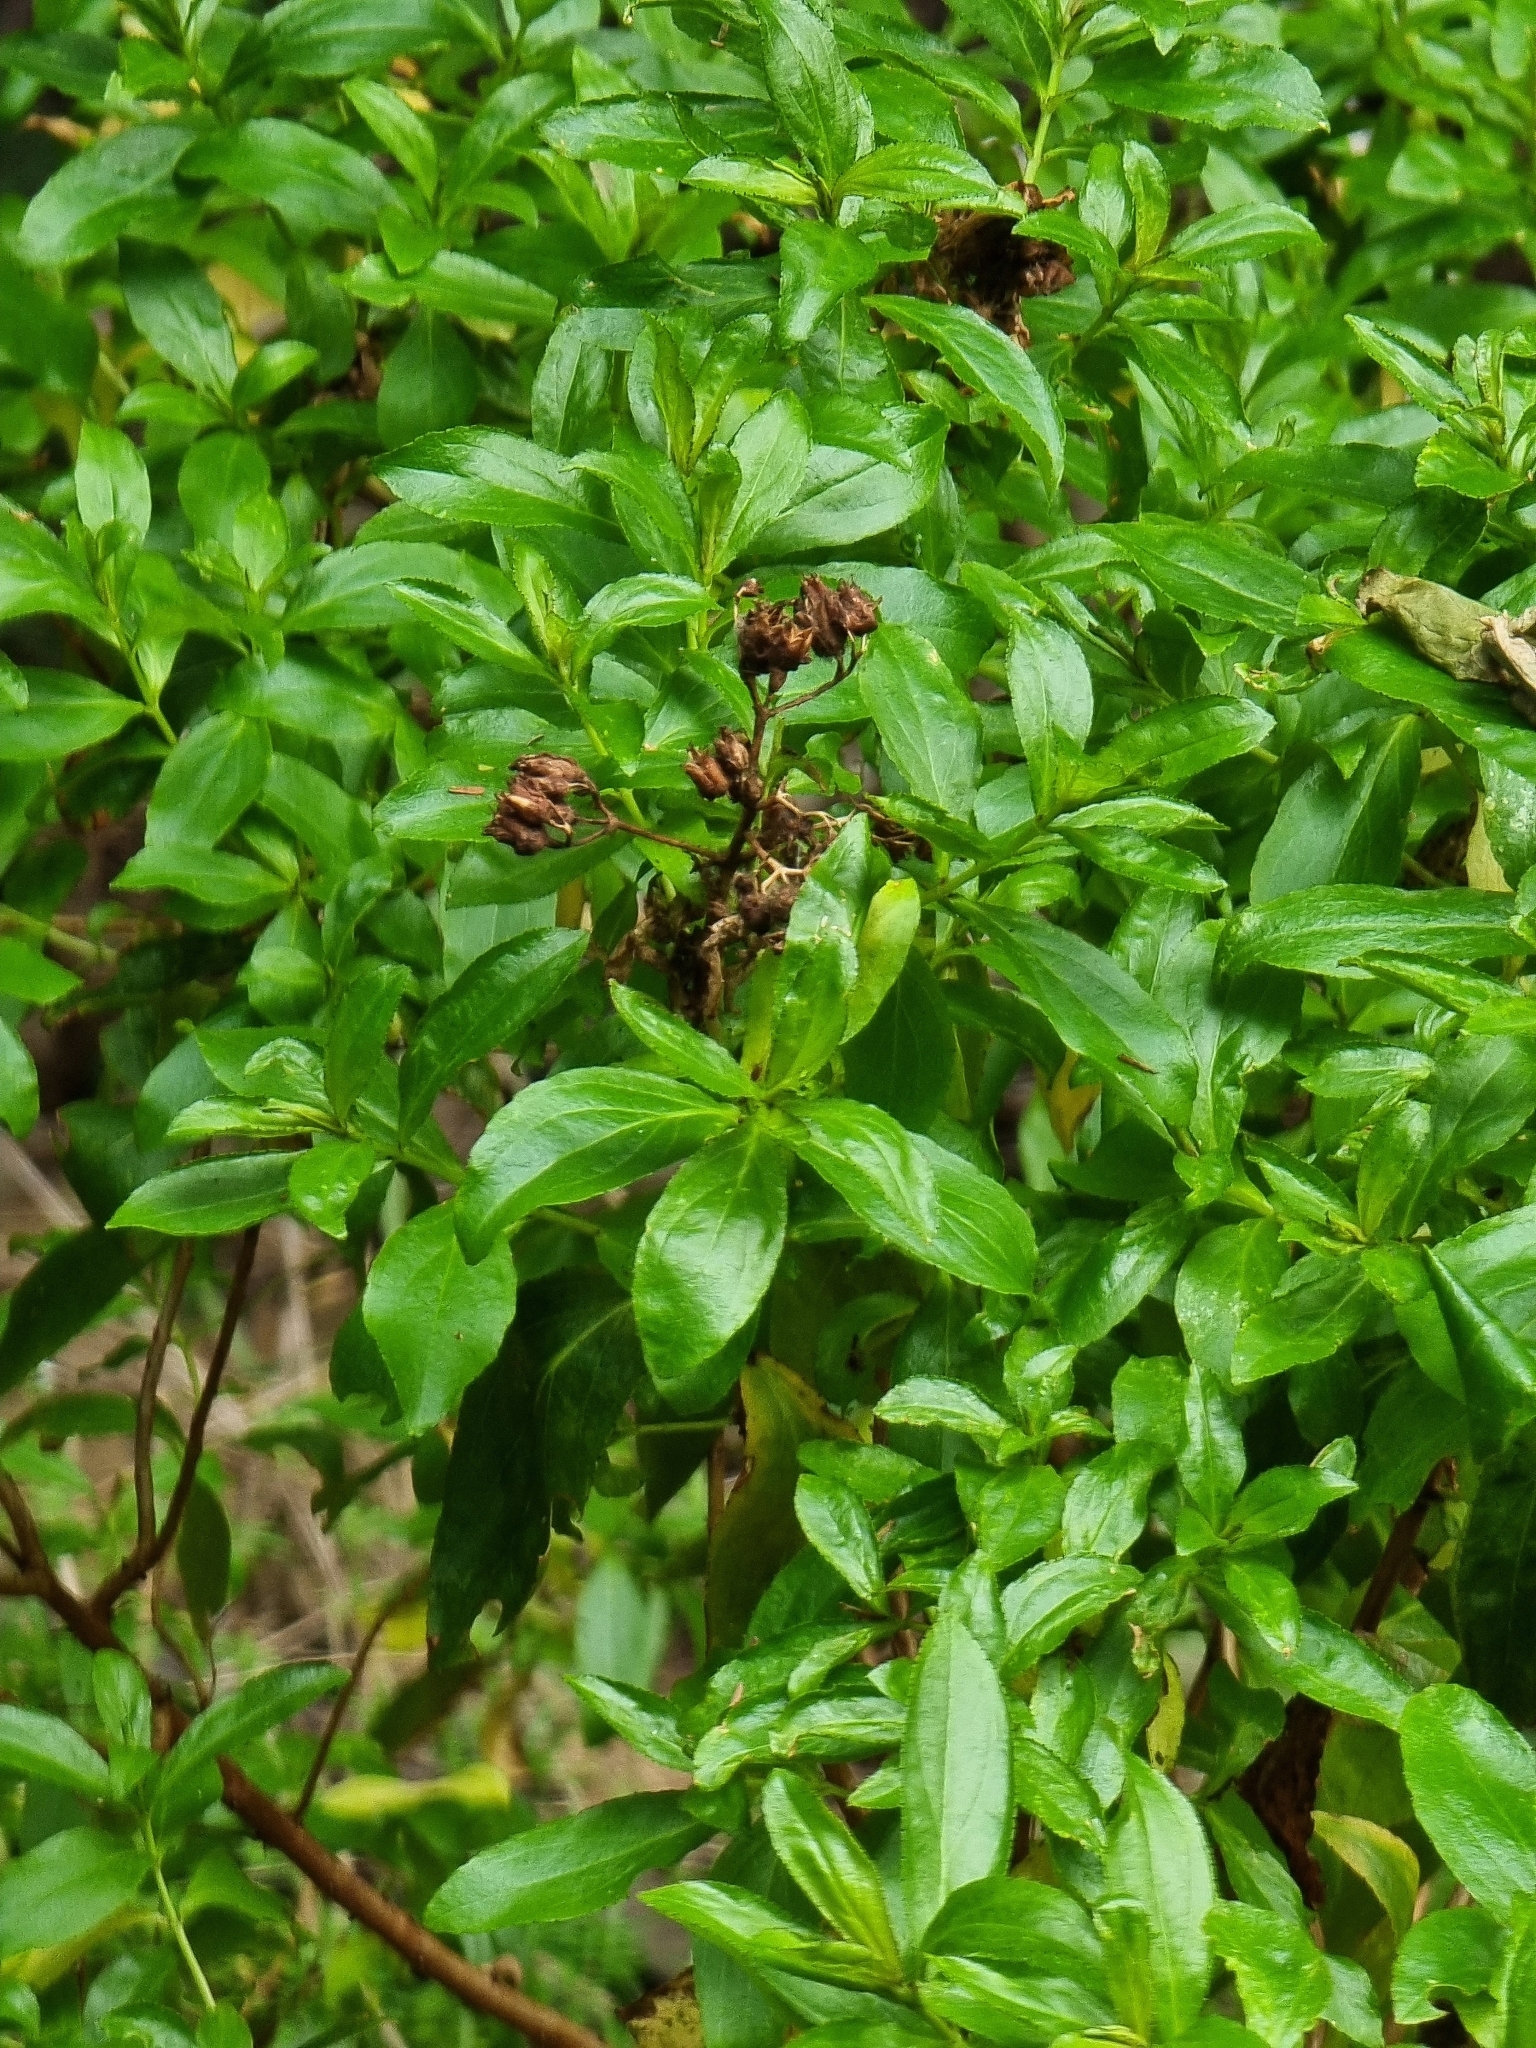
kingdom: Plantae
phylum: Tracheophyta
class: Magnoliopsida
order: Malpighiales
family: Hypericaceae
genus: Hypericum
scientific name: Hypericum glandulosum
